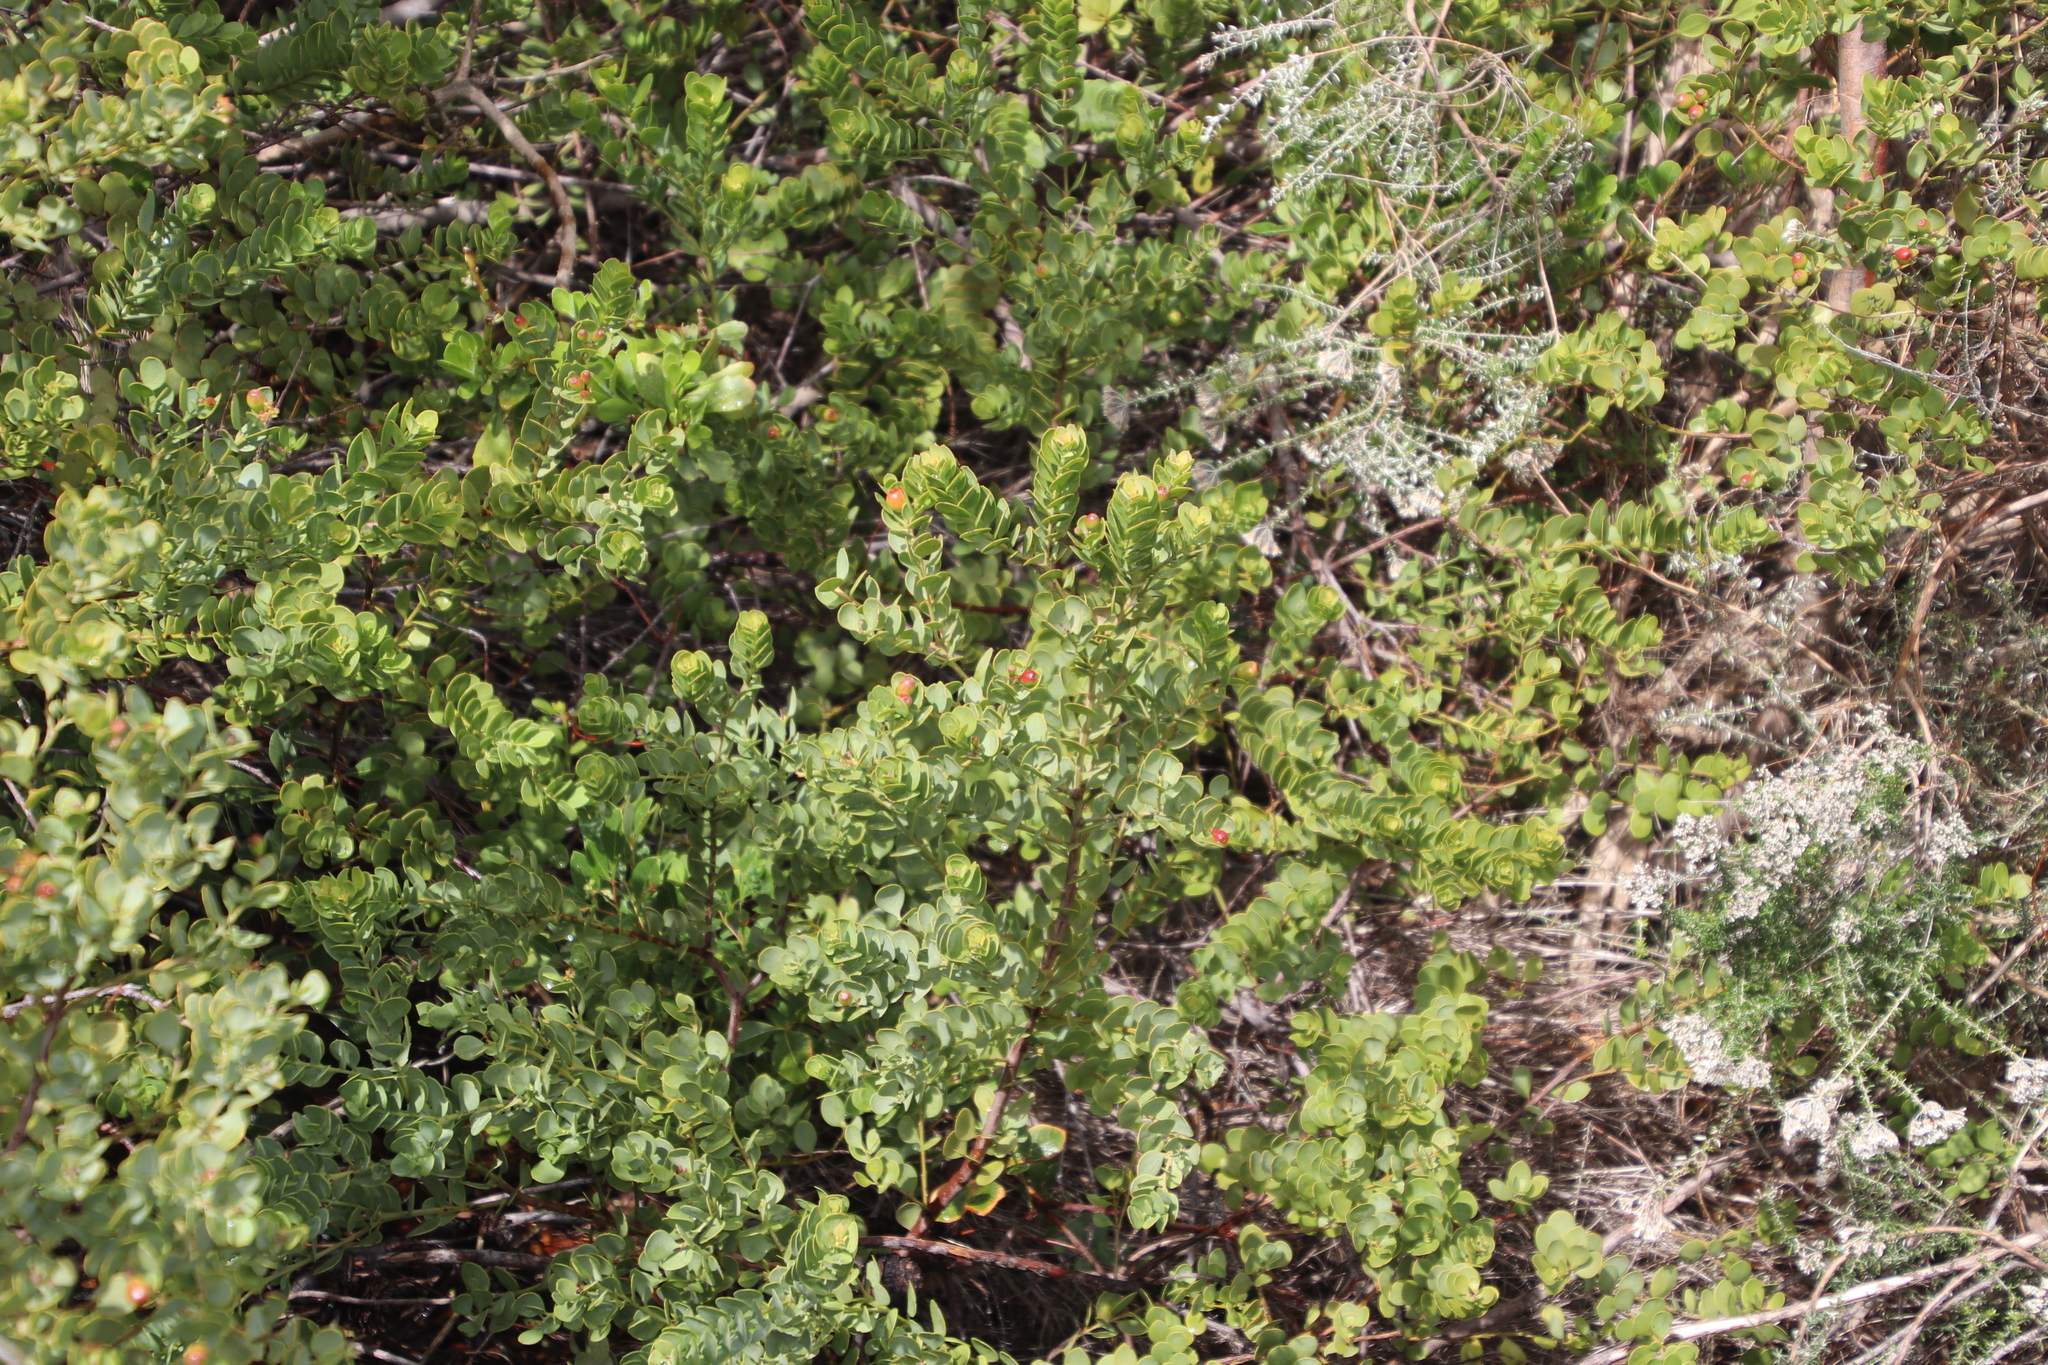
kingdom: Plantae
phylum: Tracheophyta
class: Magnoliopsida
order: Santalales
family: Santalaceae
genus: Osyris
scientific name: Osyris compressa
